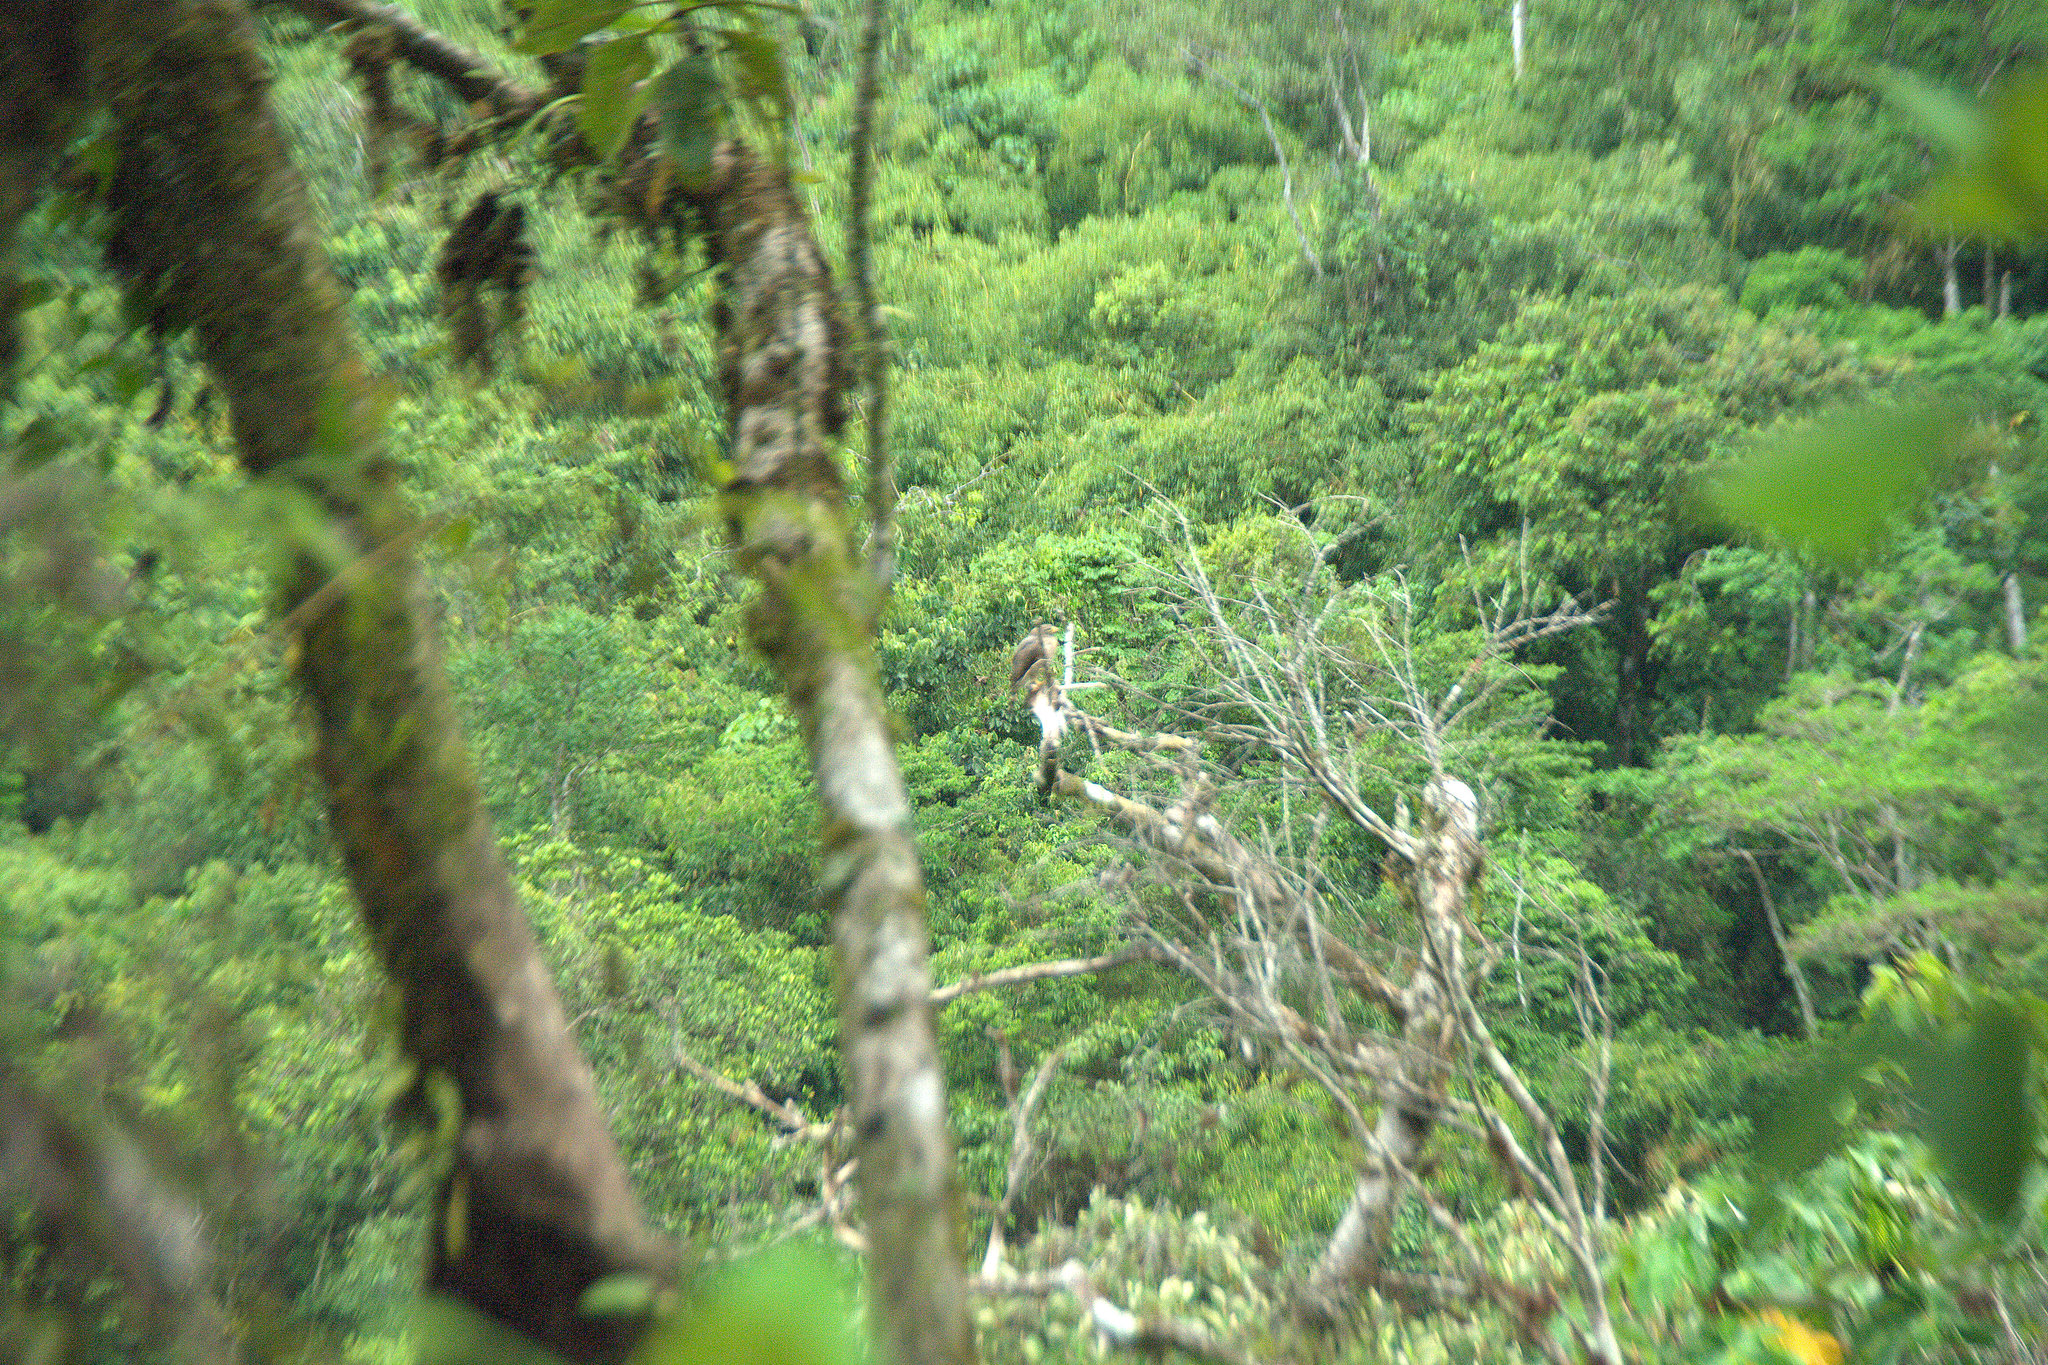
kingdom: Animalia
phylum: Chordata
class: Aves
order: Accipitriformes
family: Accipitridae
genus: Rupornis
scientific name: Rupornis magnirostris
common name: Roadside hawk
